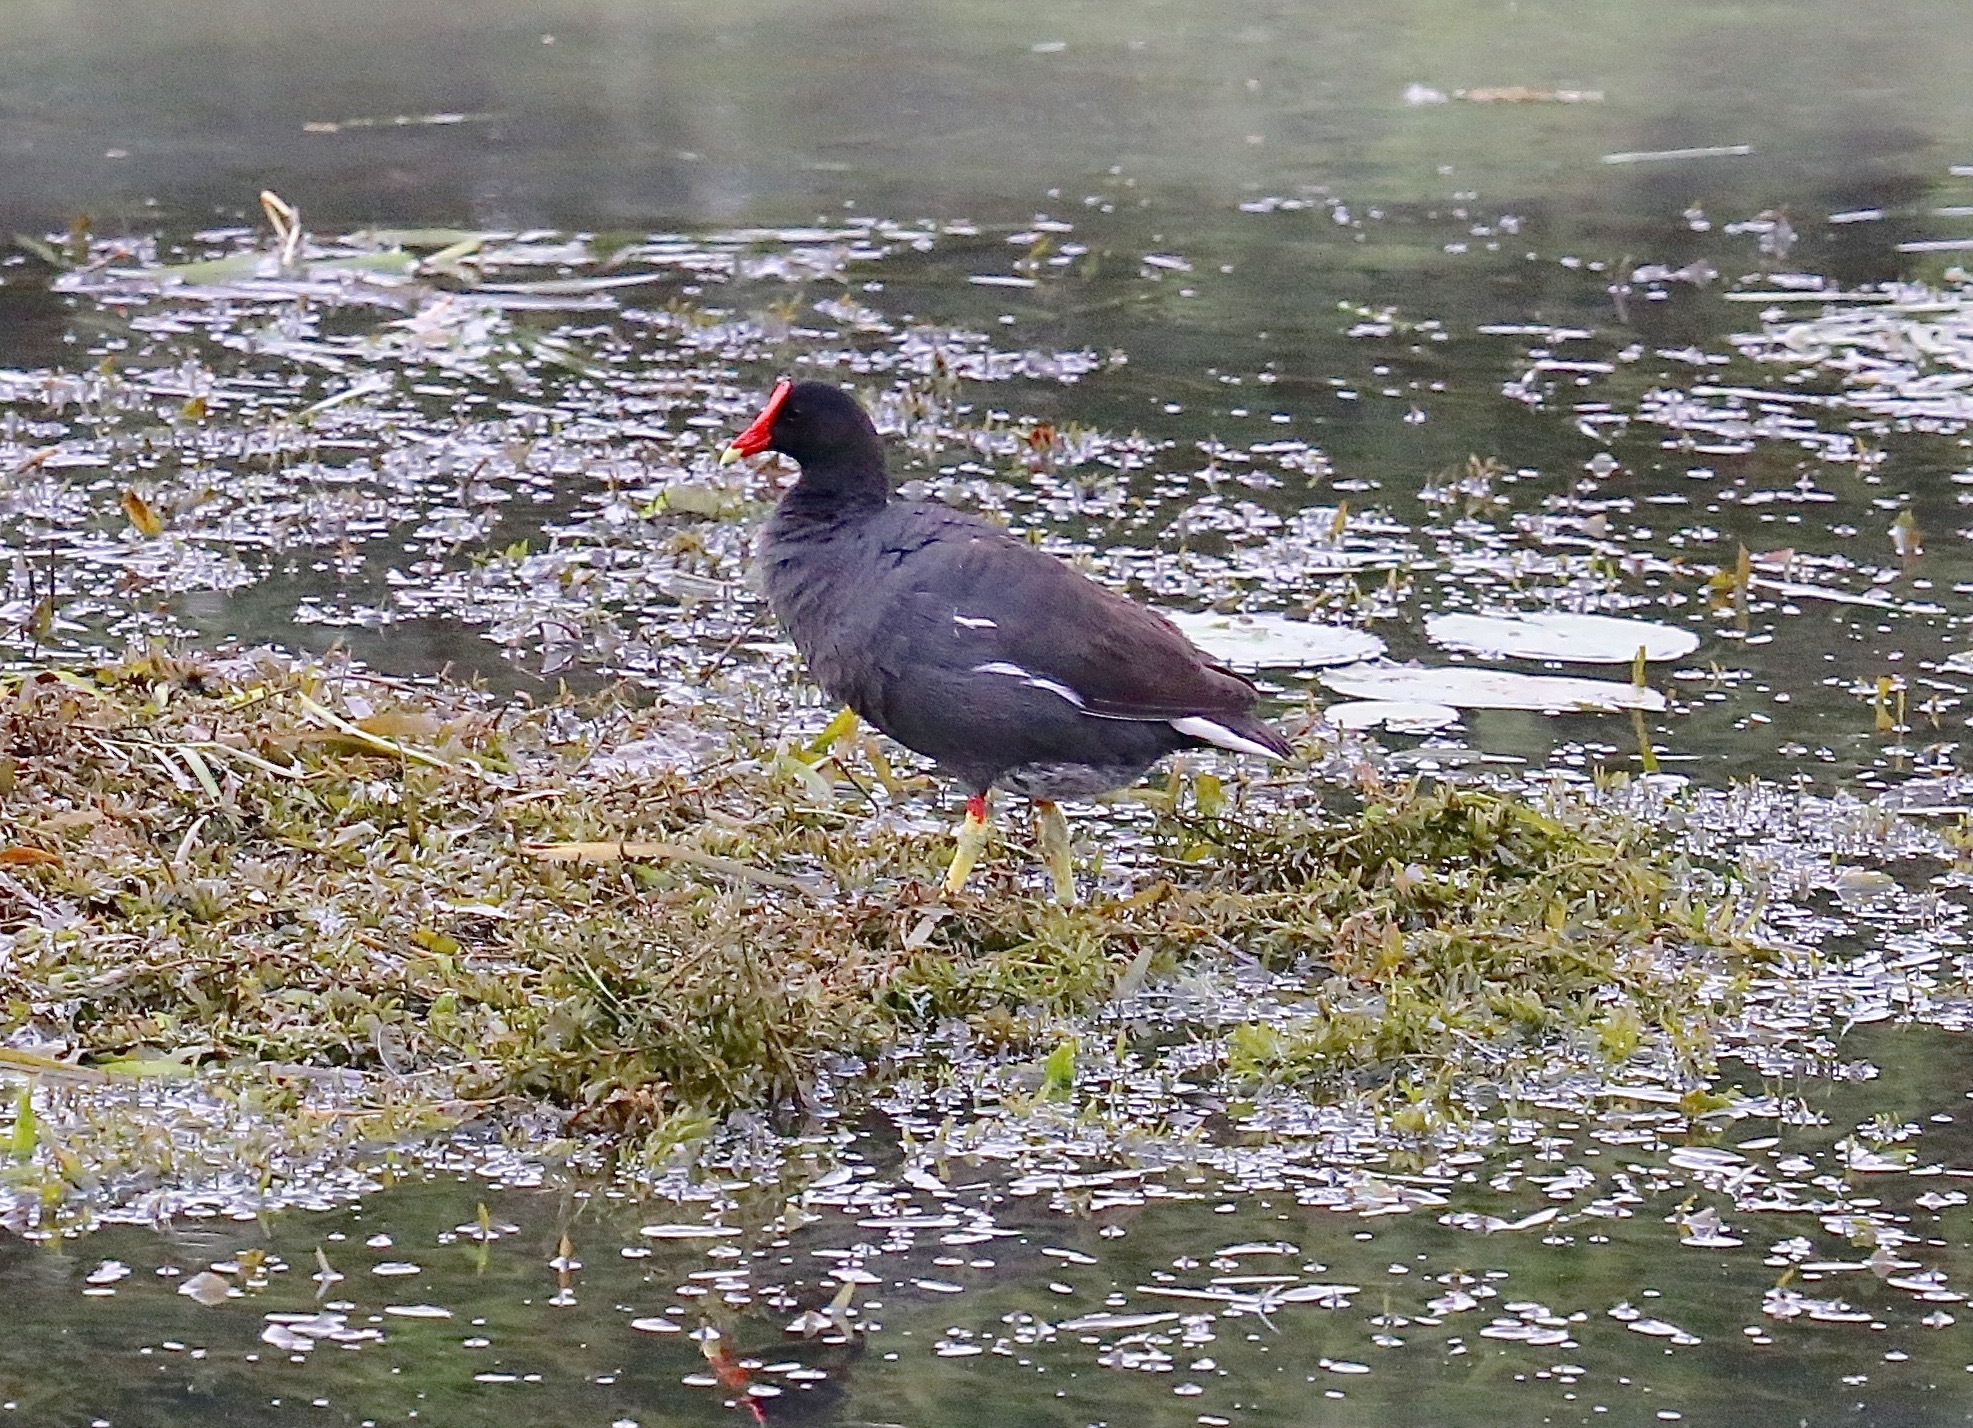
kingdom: Animalia
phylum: Chordata
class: Aves
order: Gruiformes
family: Rallidae
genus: Gallinula
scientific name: Gallinula chloropus
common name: Common moorhen
